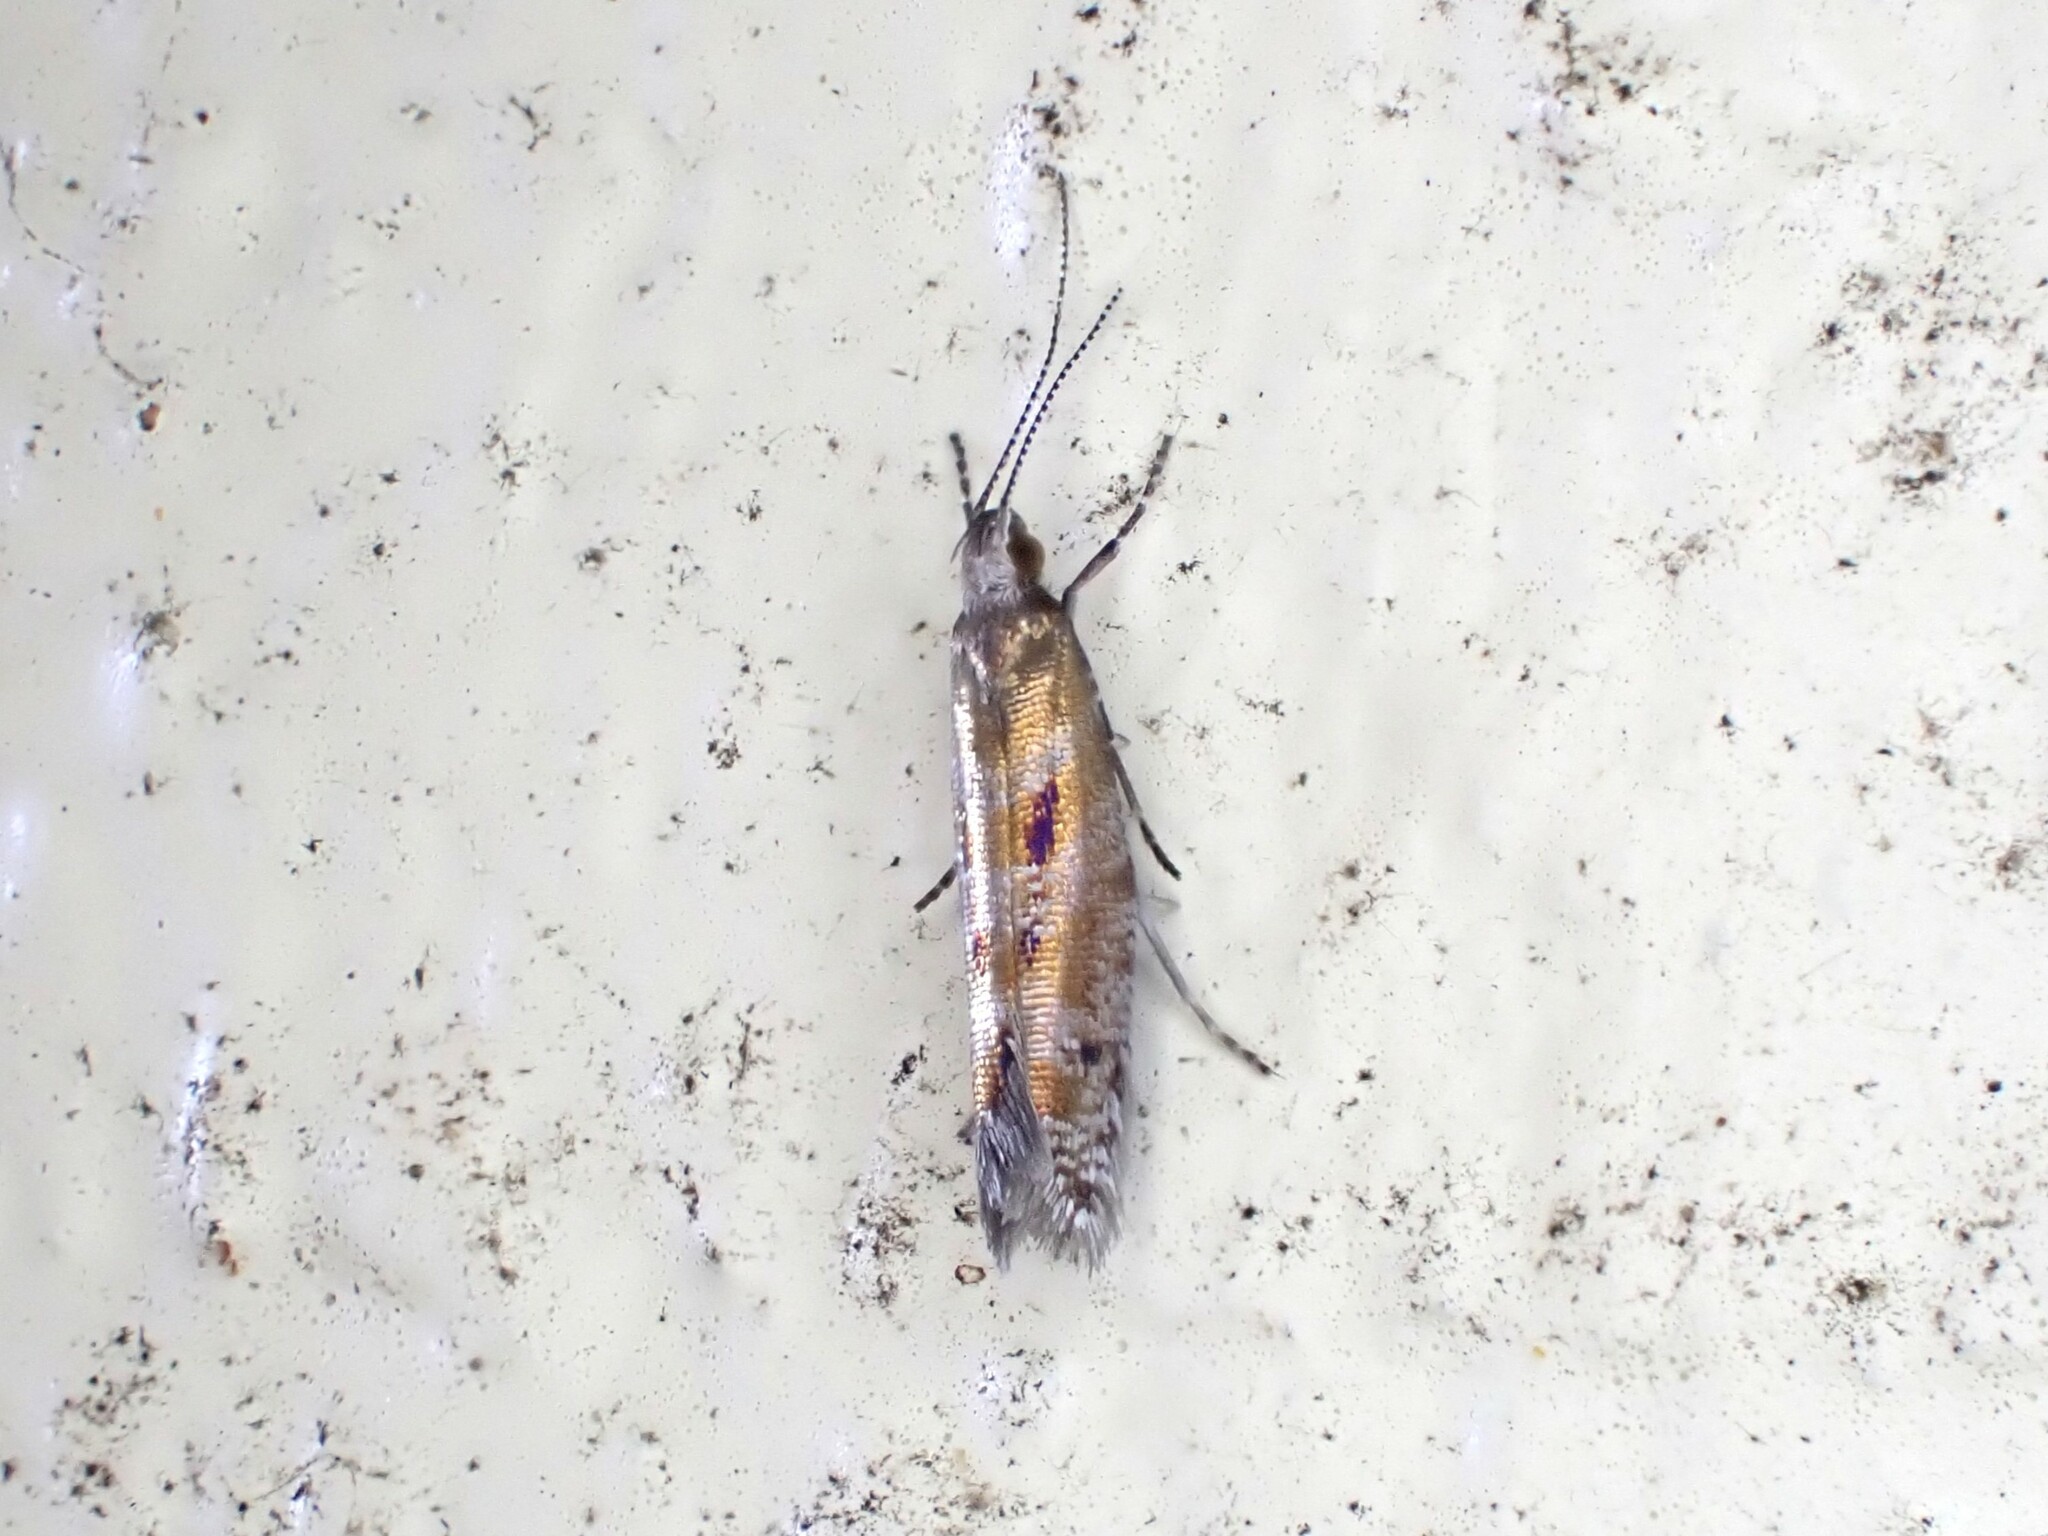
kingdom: Animalia
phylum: Arthropoda
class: Insecta
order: Lepidoptera
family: Glyphipterigidae
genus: Chrysorthenches
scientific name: Chrysorthenches drosochalca
